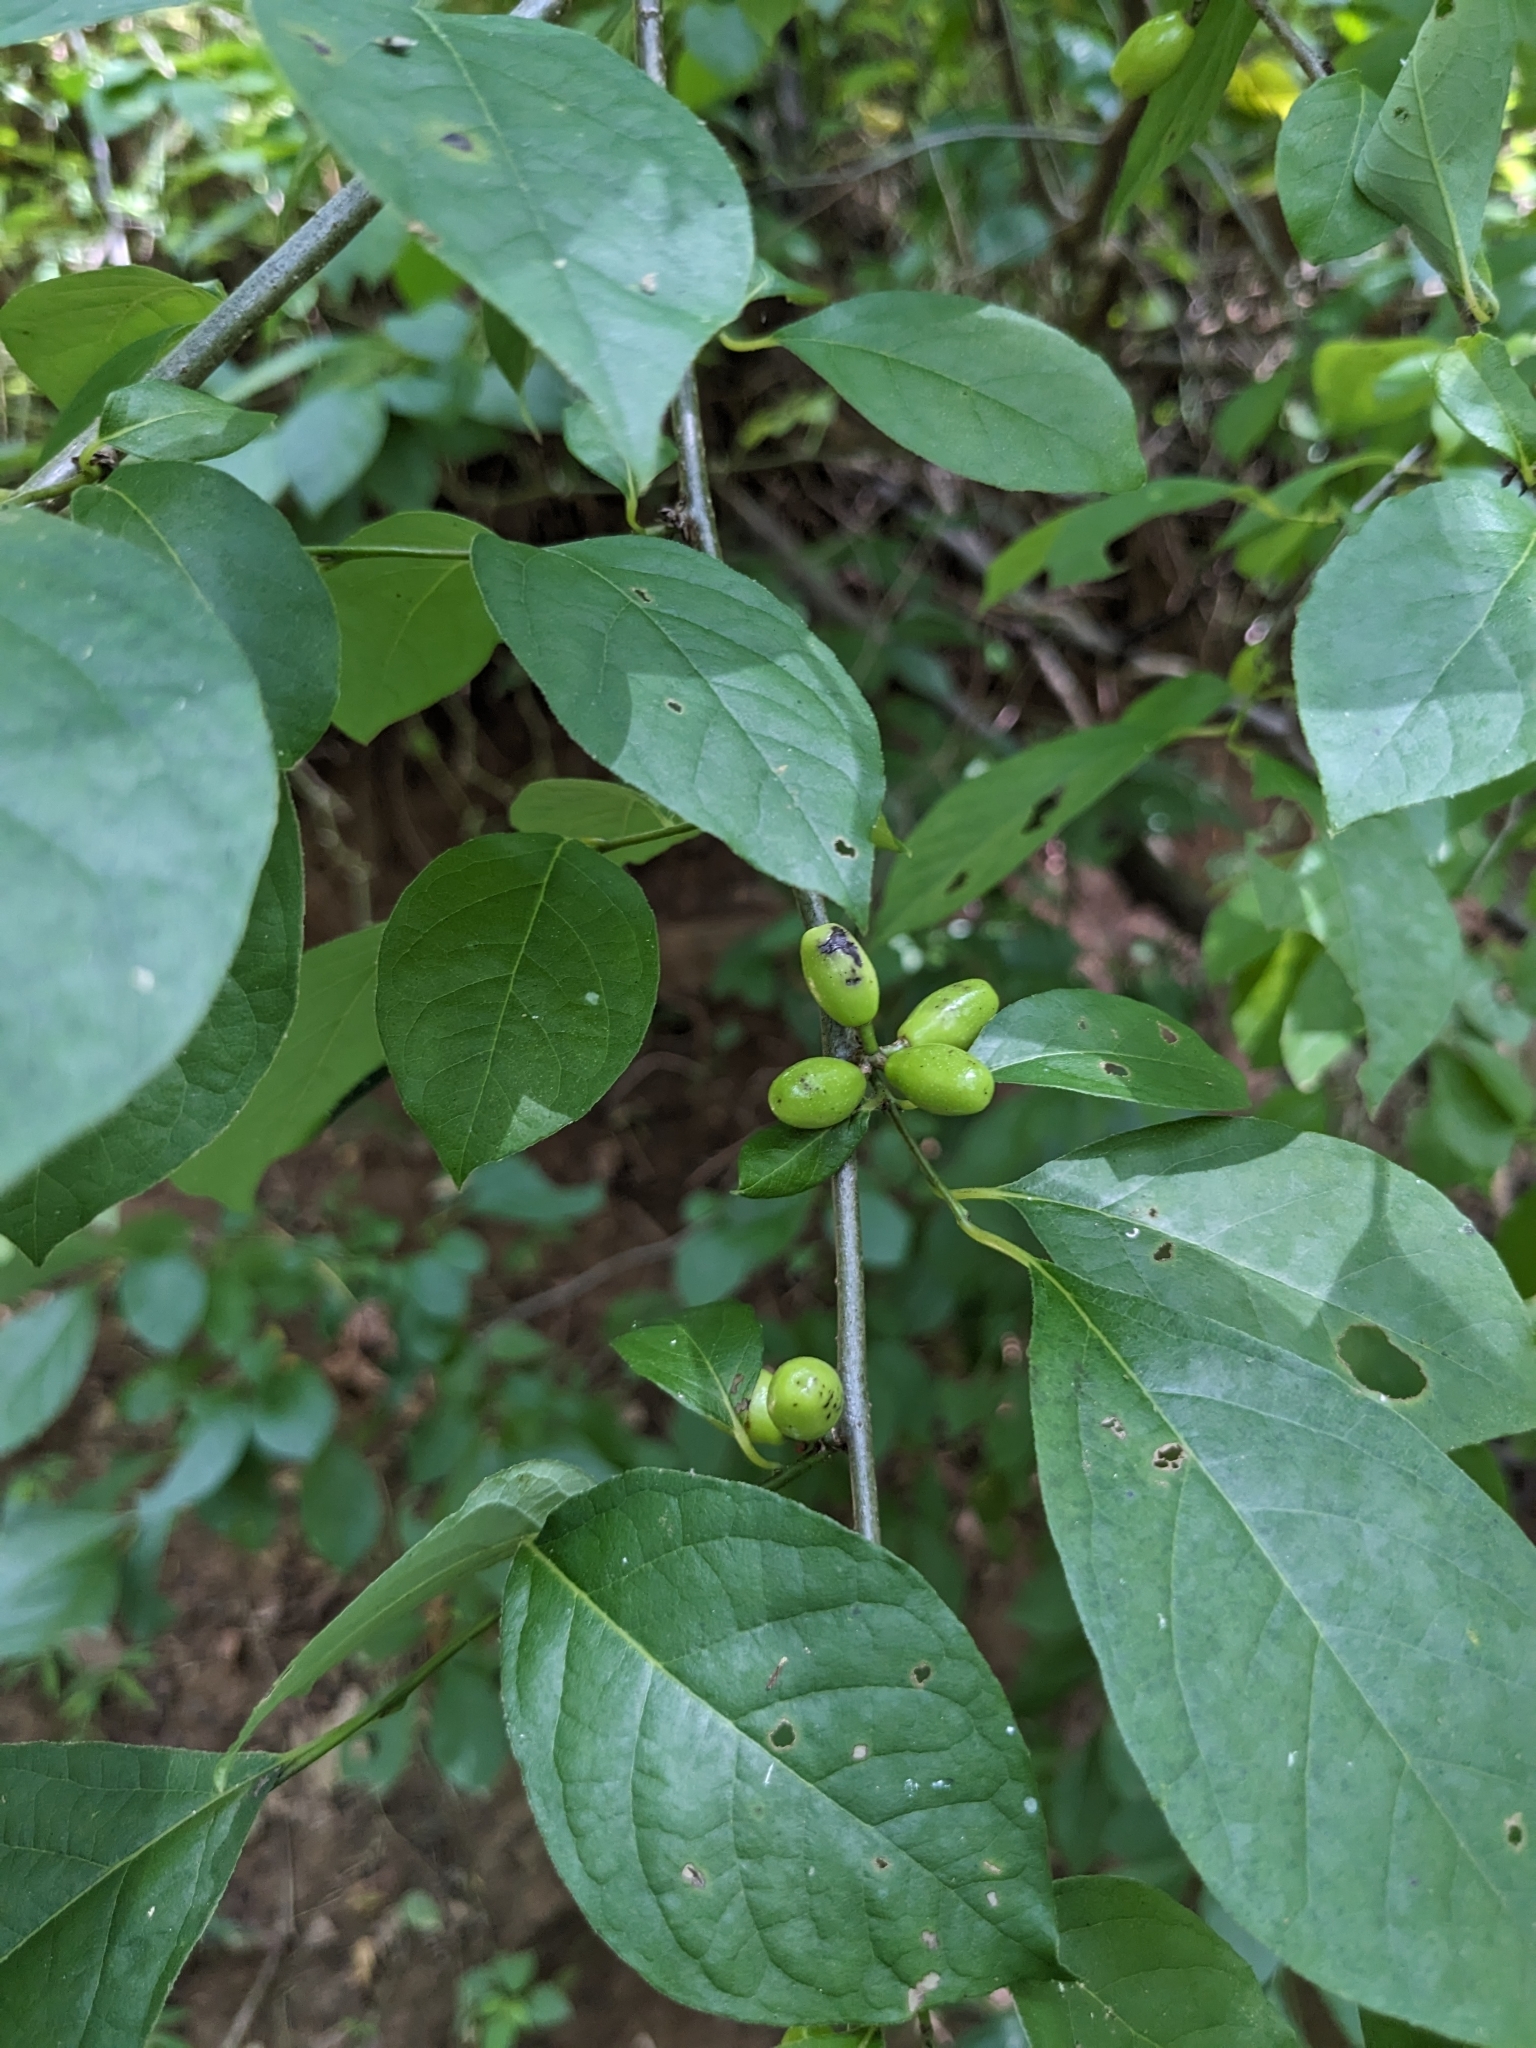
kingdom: Plantae
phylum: Tracheophyta
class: Magnoliopsida
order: Laurales
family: Lauraceae
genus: Lindera
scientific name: Lindera benzoin
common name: Spicebush
